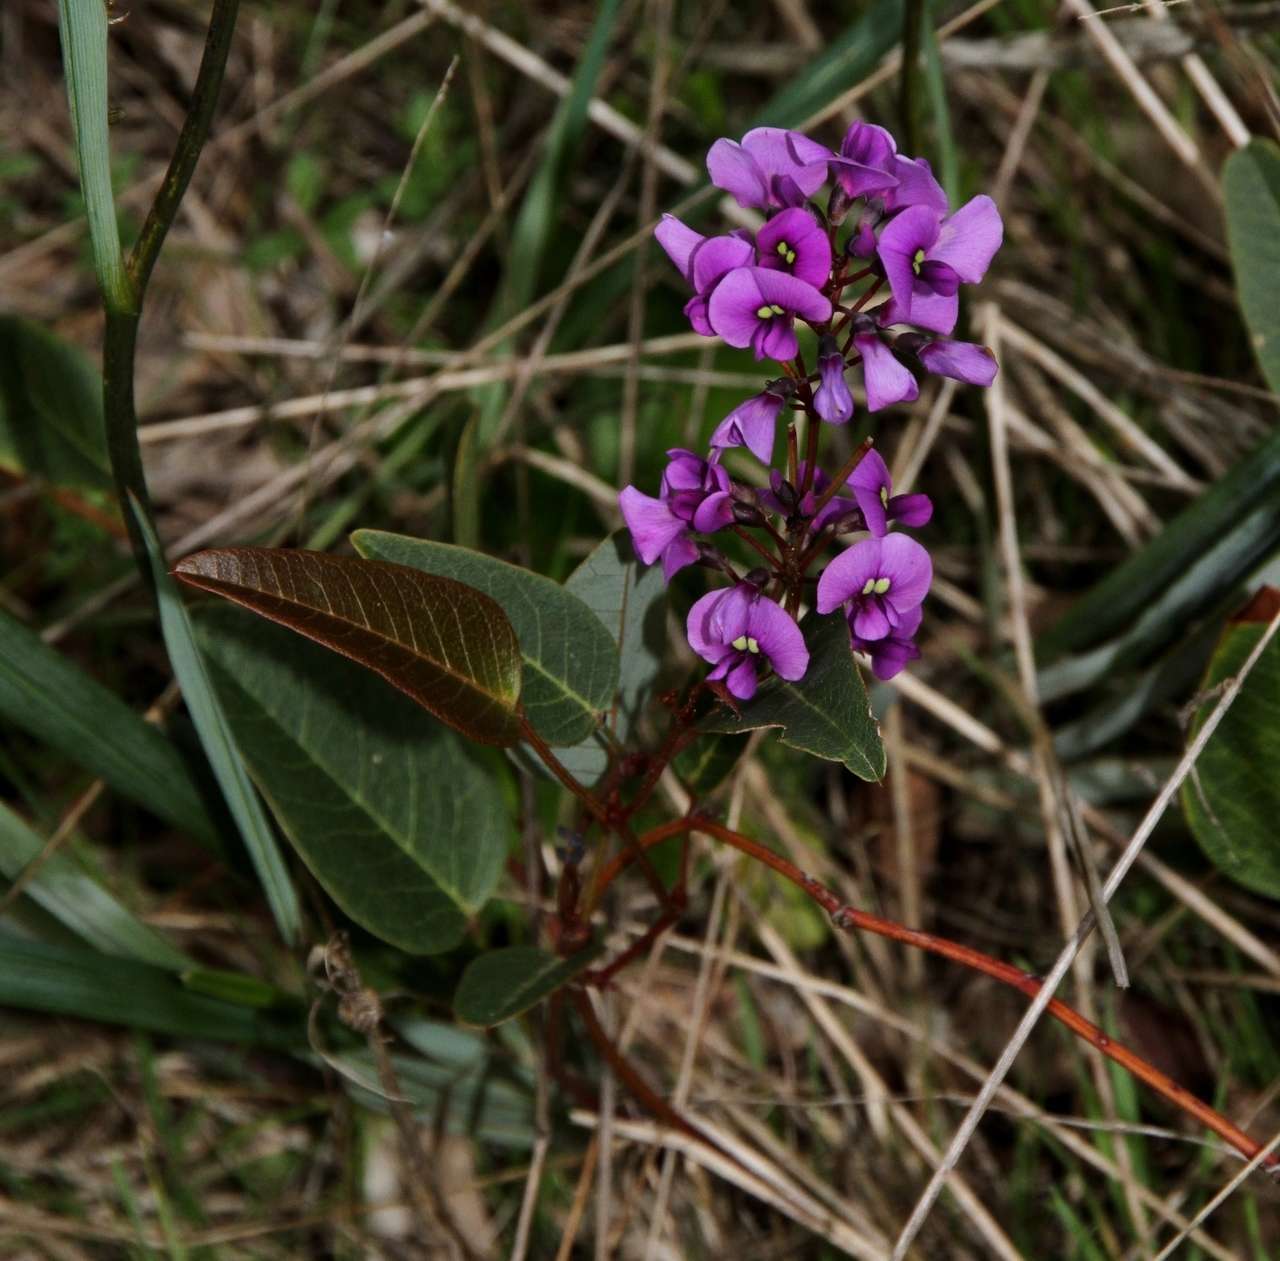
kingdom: Plantae
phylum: Tracheophyta
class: Magnoliopsida
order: Fabales
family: Fabaceae
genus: Hardenbergia
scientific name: Hardenbergia violacea
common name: Coral-pea
